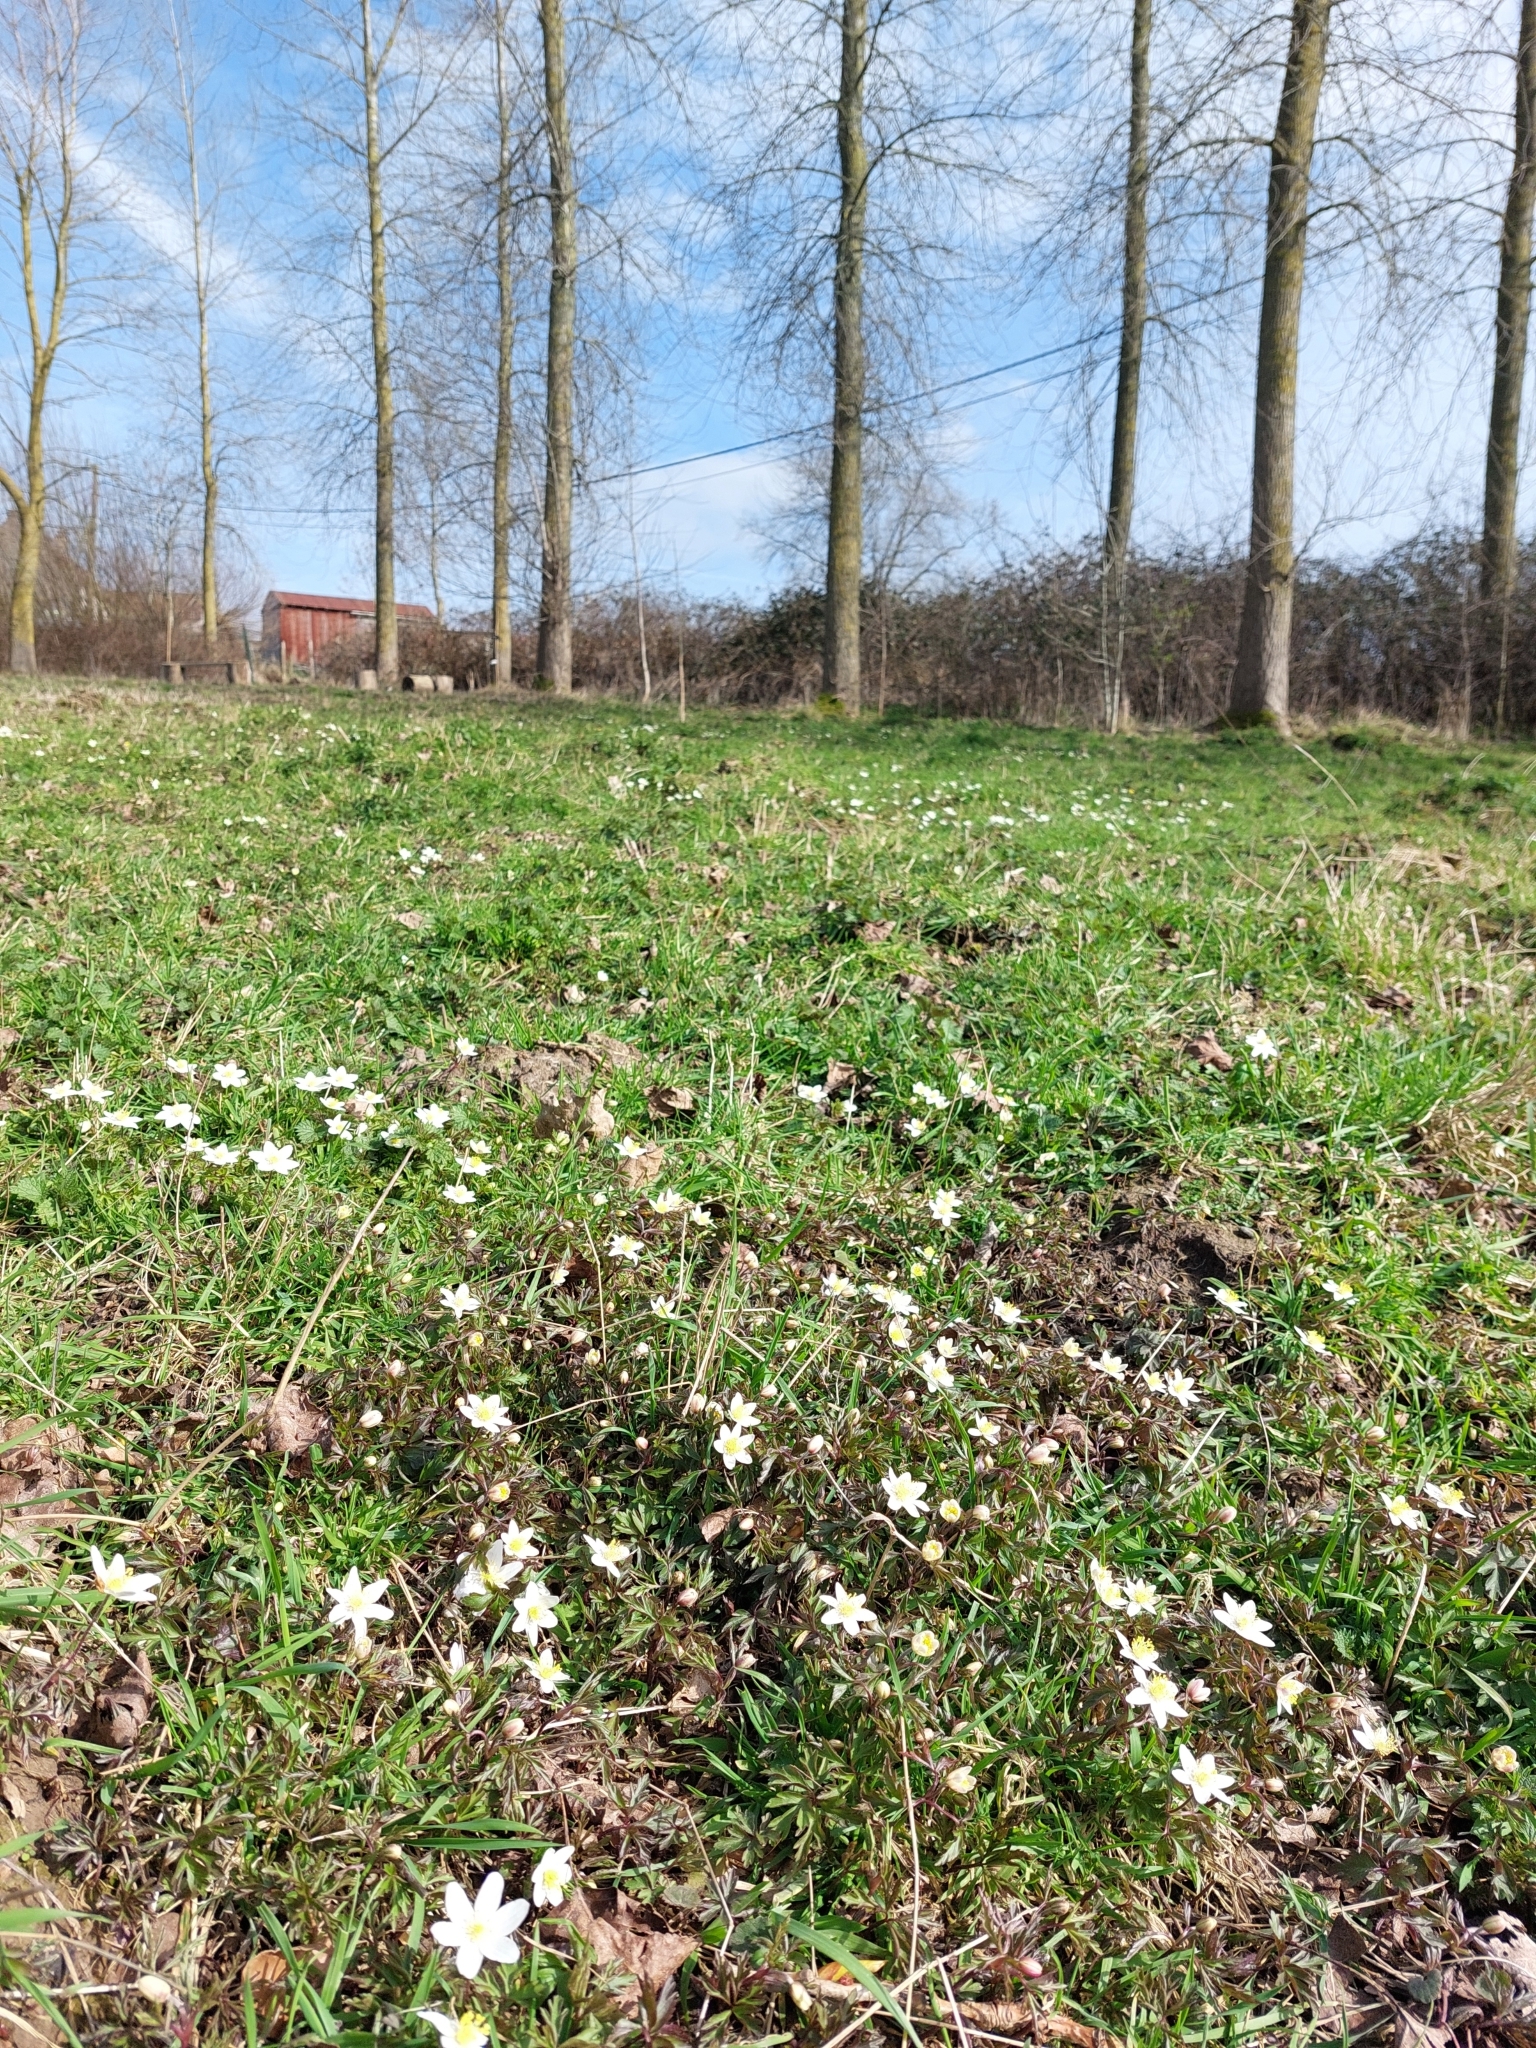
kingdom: Plantae
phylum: Tracheophyta
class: Magnoliopsida
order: Ranunculales
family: Ranunculaceae
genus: Anemone
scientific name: Anemone nemorosa
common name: Wood anemone
